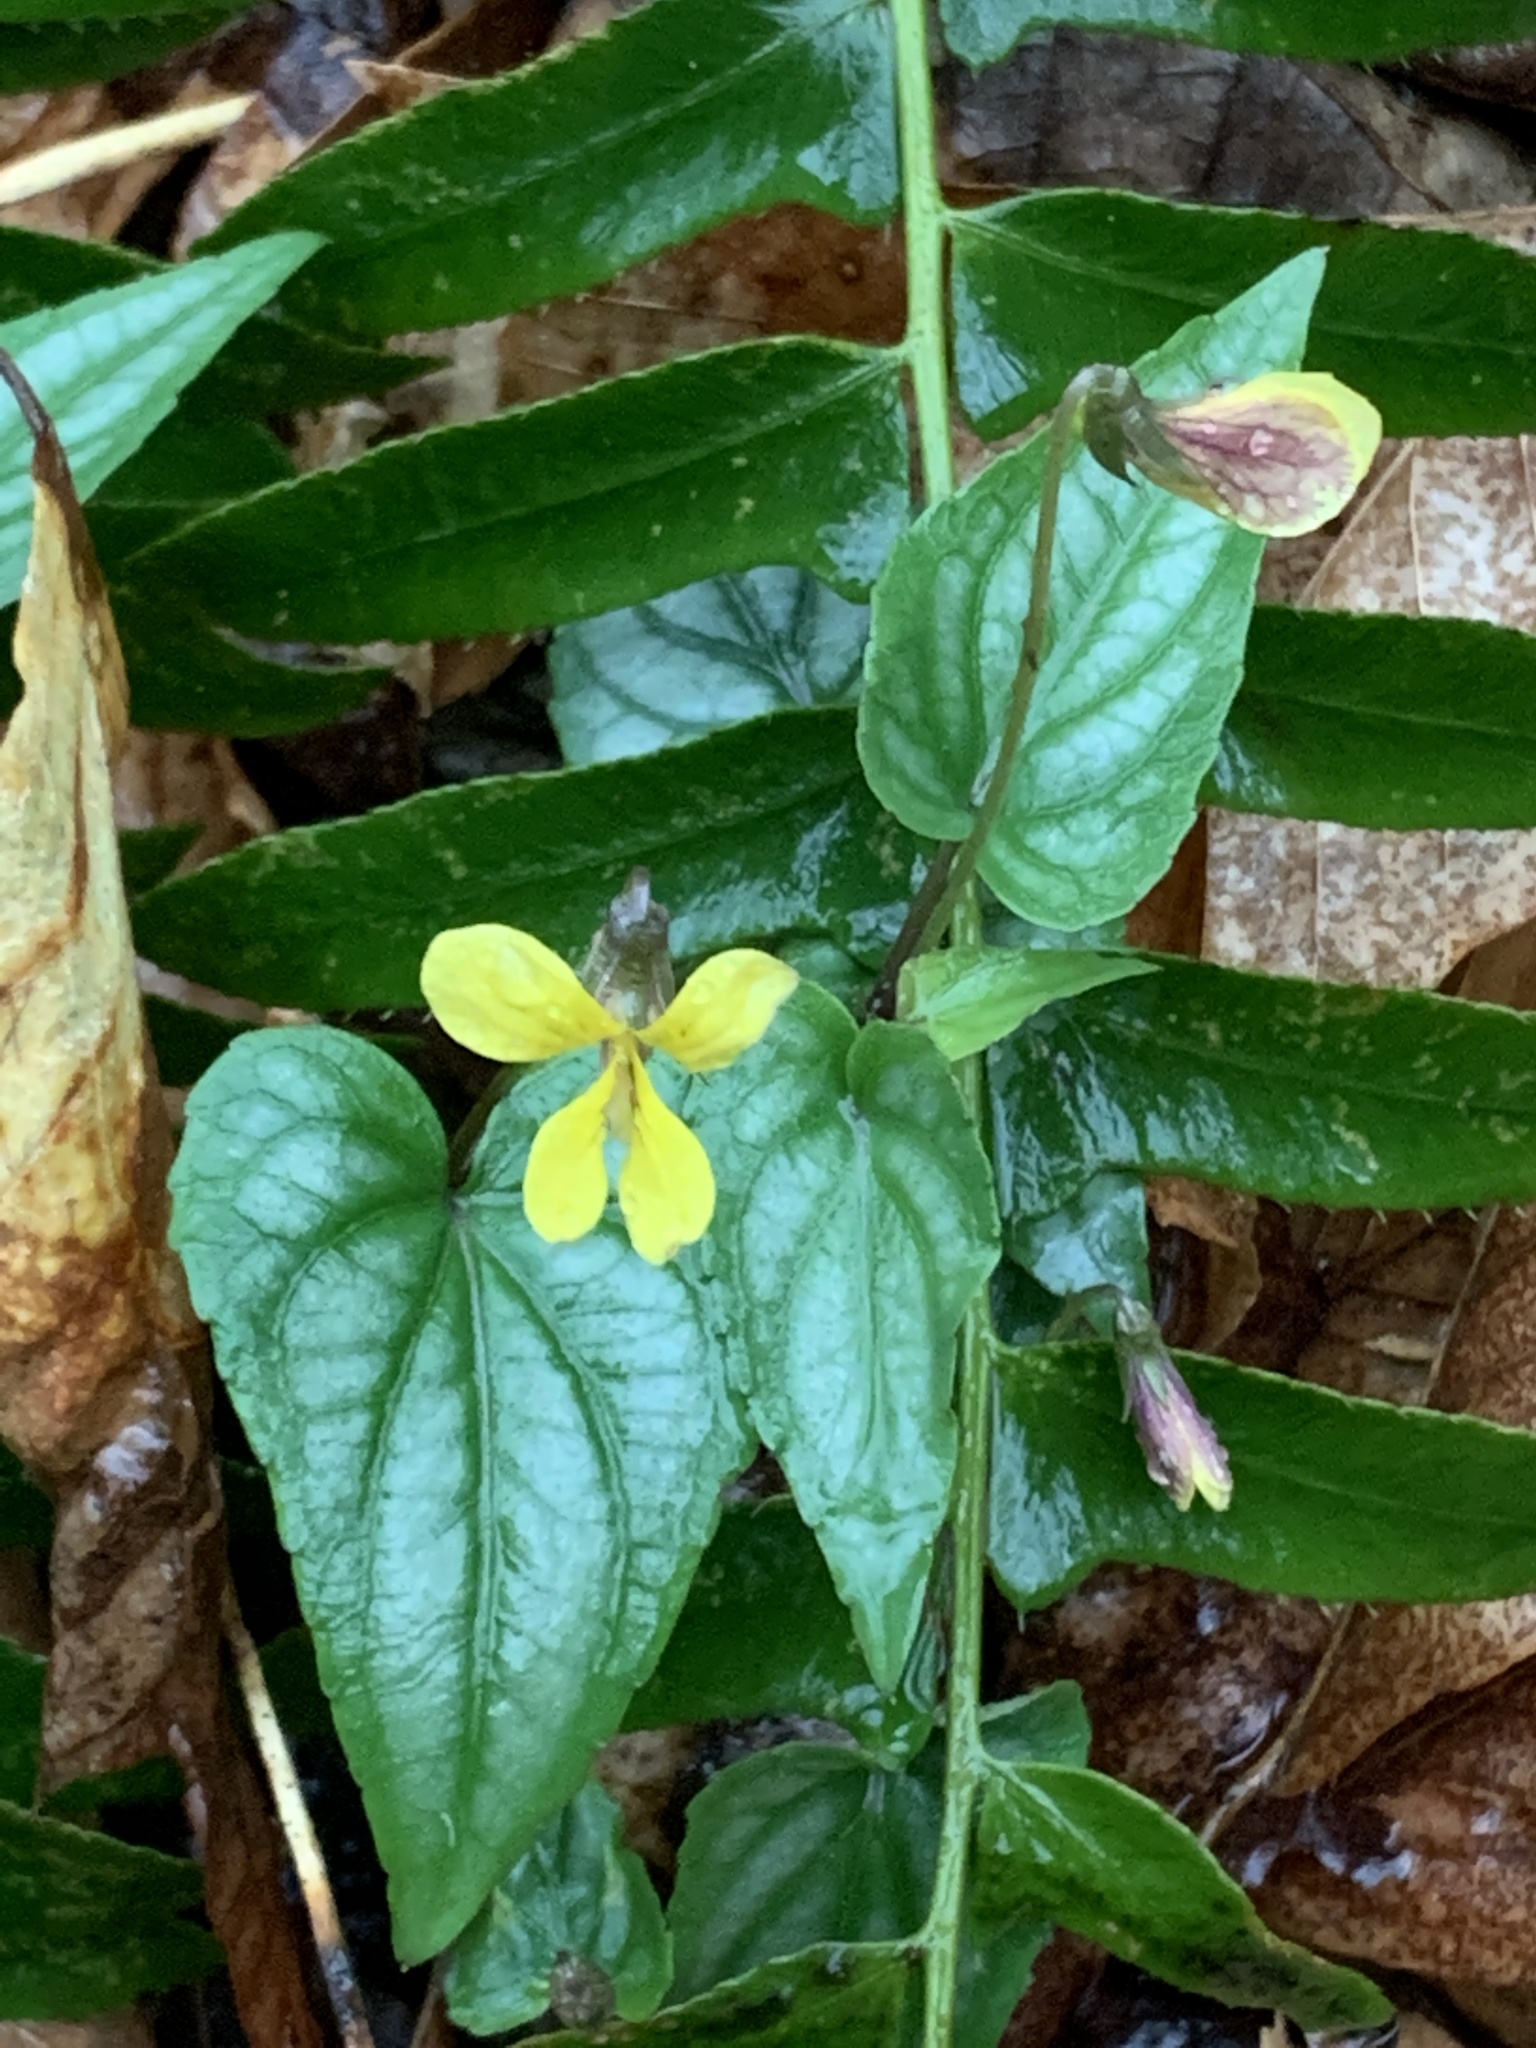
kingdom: Plantae
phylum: Tracheophyta
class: Magnoliopsida
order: Malpighiales
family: Violaceae
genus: Viola
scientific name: Viola hastata
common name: Spear-leaf violet
